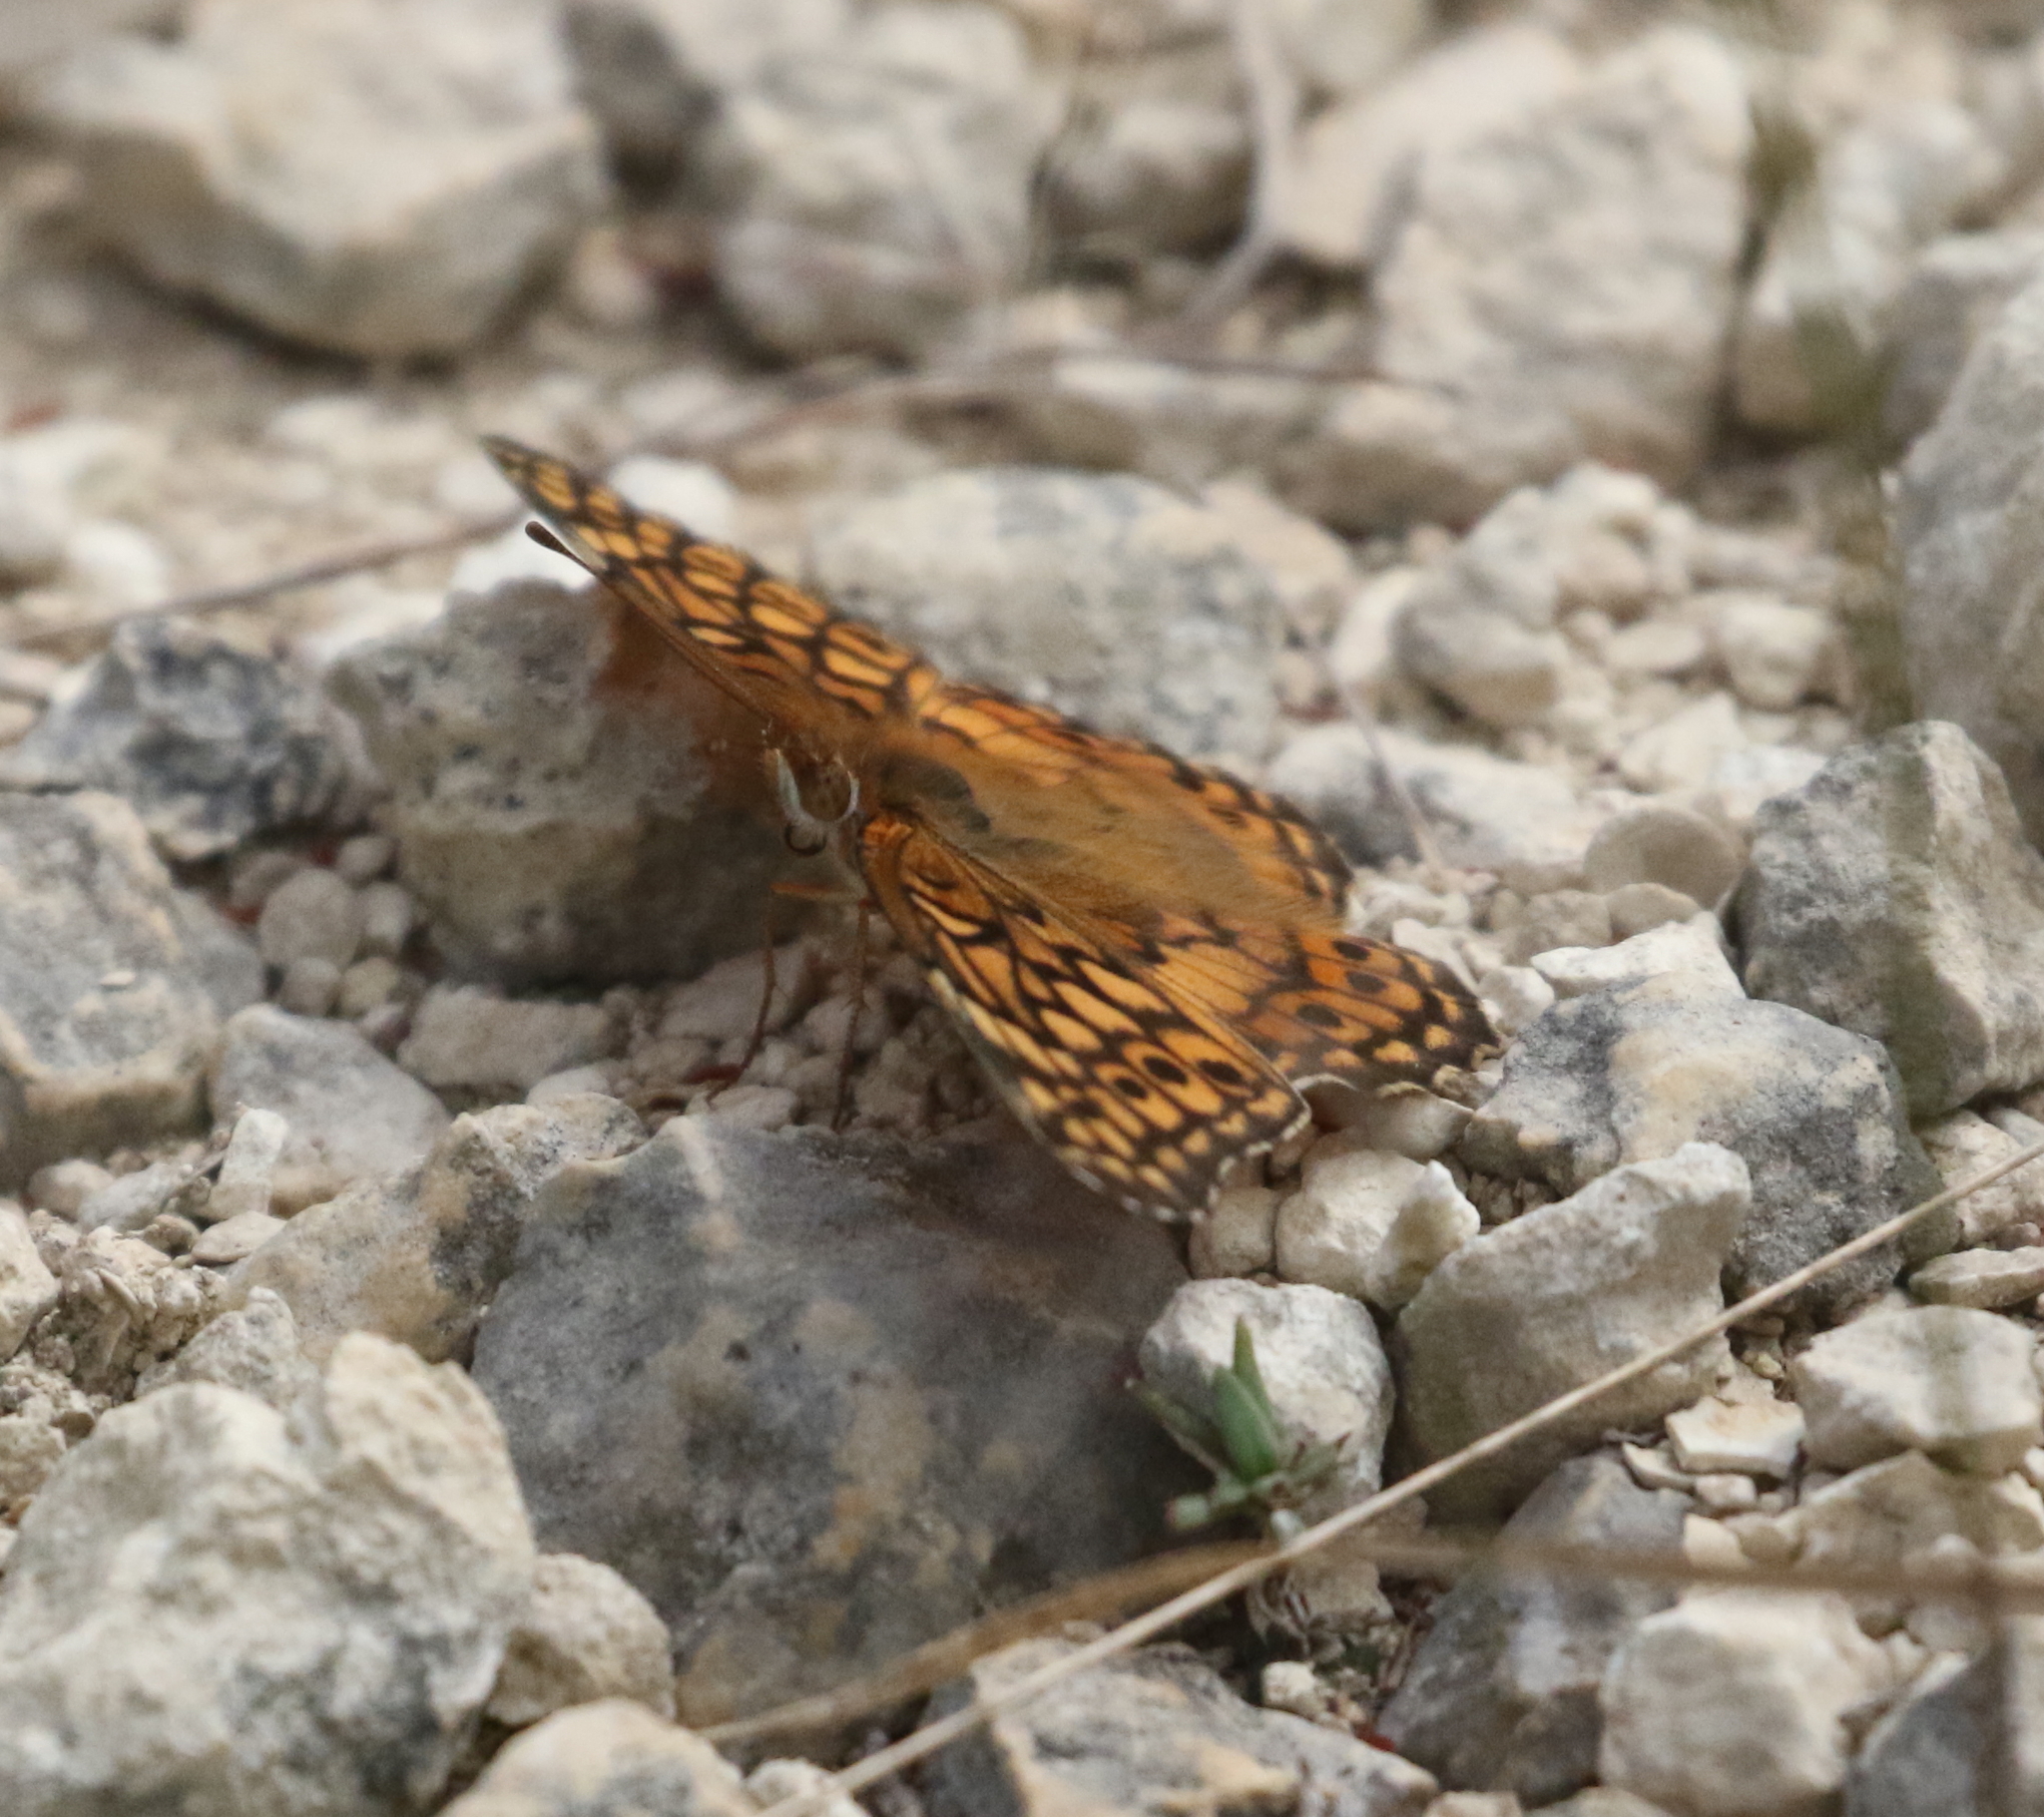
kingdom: Animalia
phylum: Arthropoda
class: Insecta
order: Lepidoptera
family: Nymphalidae
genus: Euptoieta
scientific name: Euptoieta claudia
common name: Variegated fritillary
